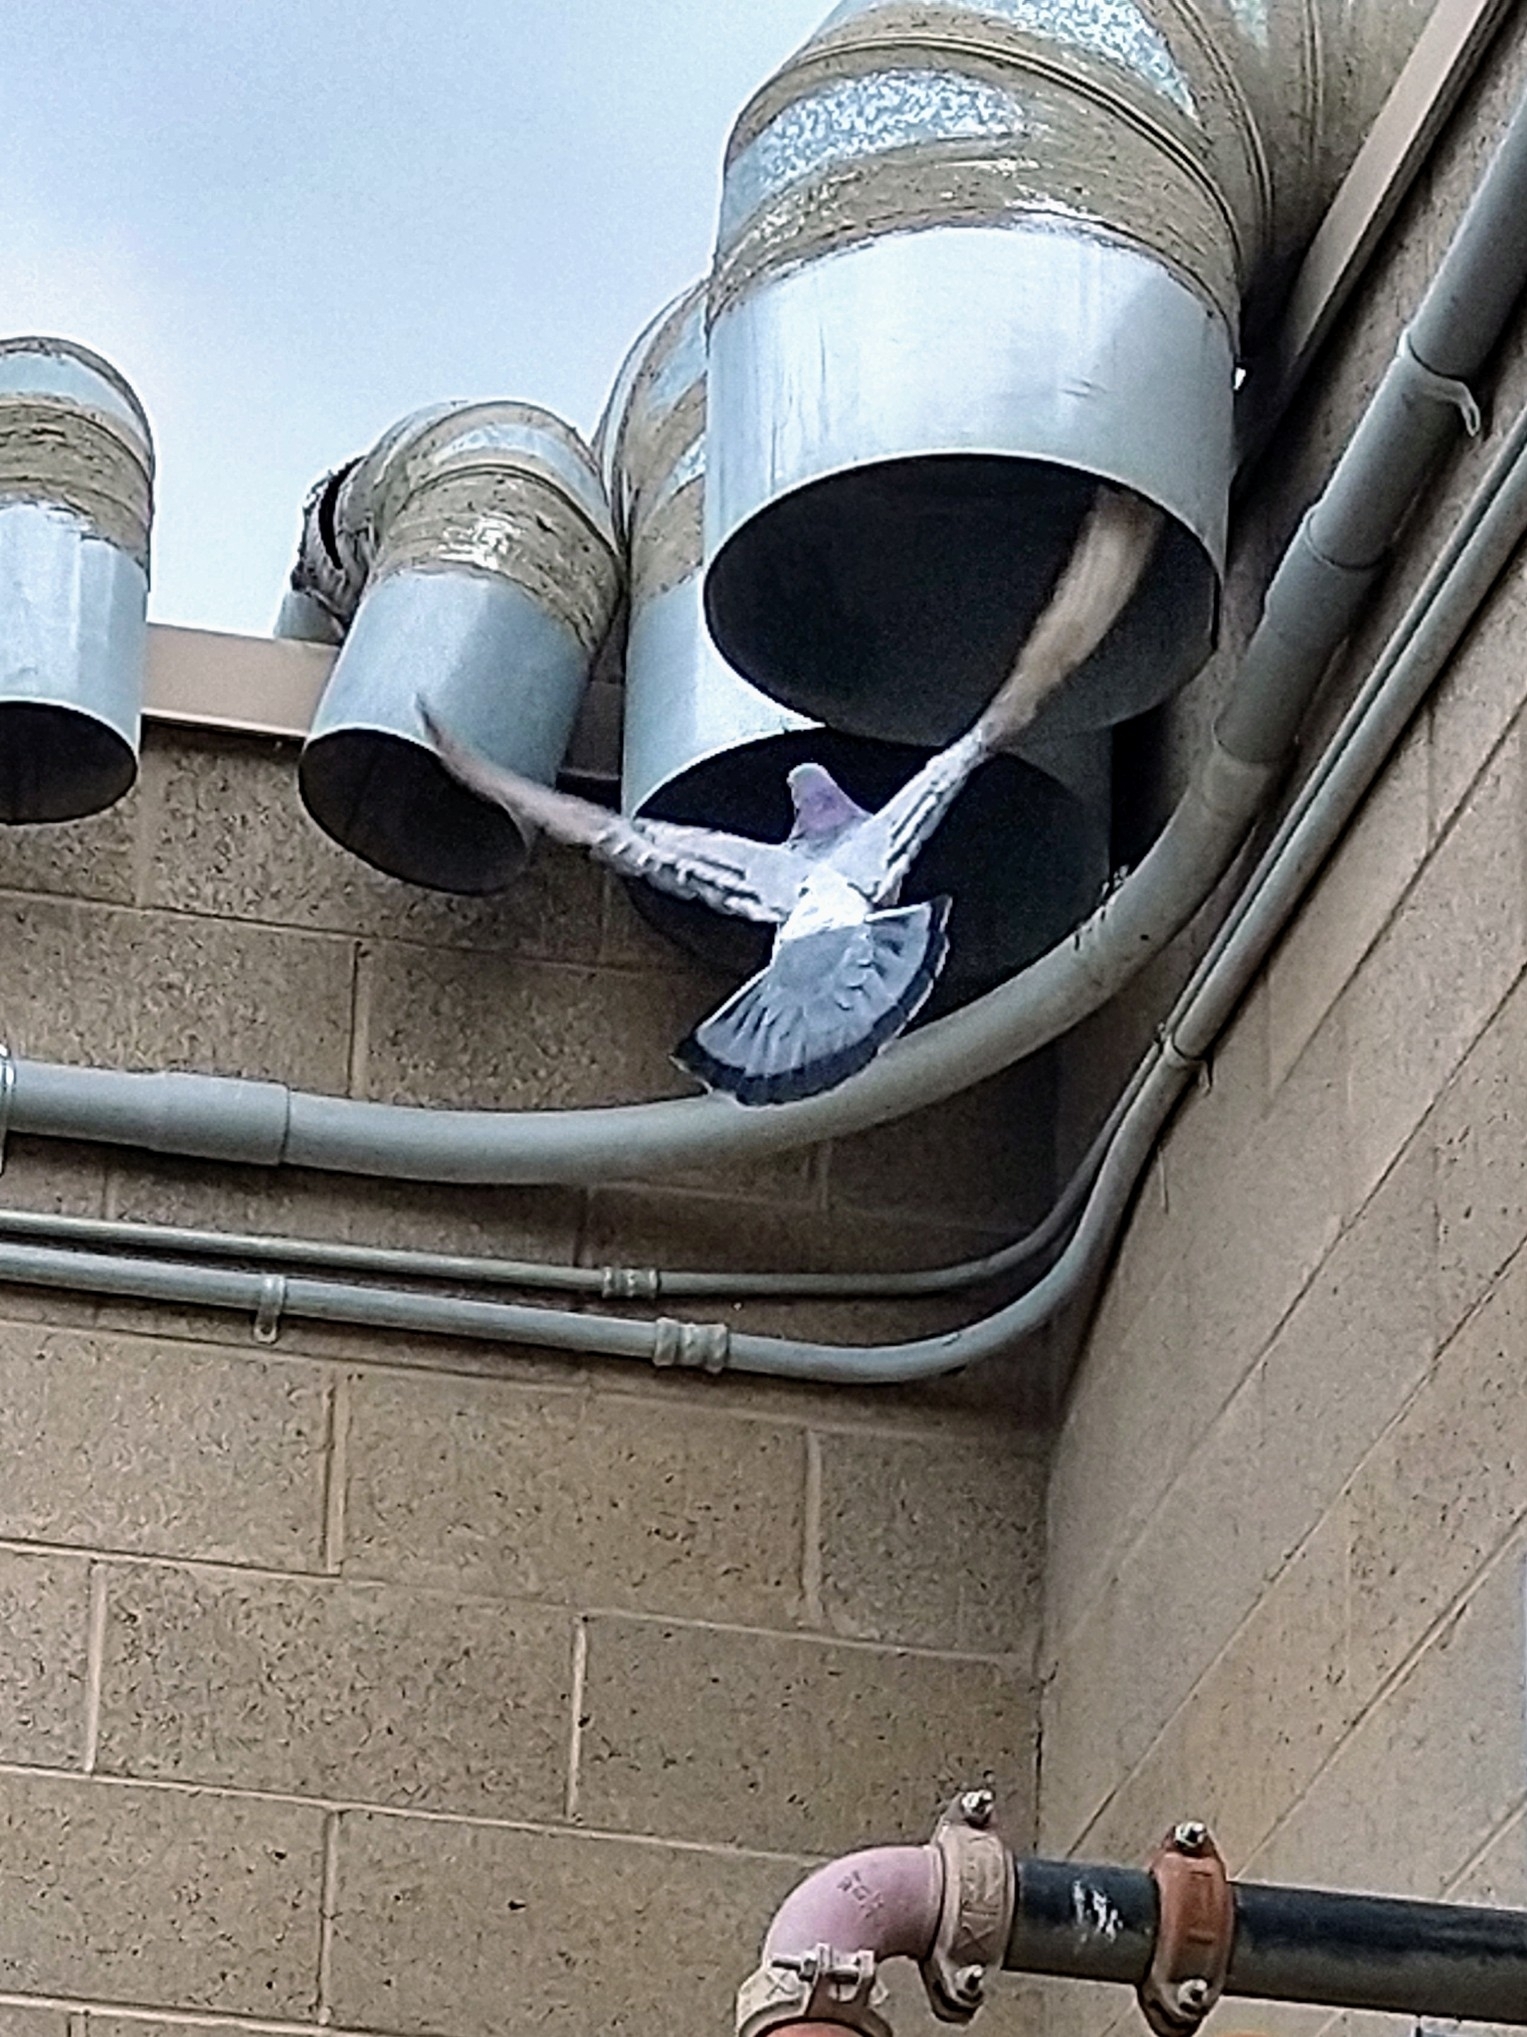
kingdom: Animalia
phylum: Chordata
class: Aves
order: Columbiformes
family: Columbidae
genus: Columba
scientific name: Columba livia
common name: Rock pigeon
